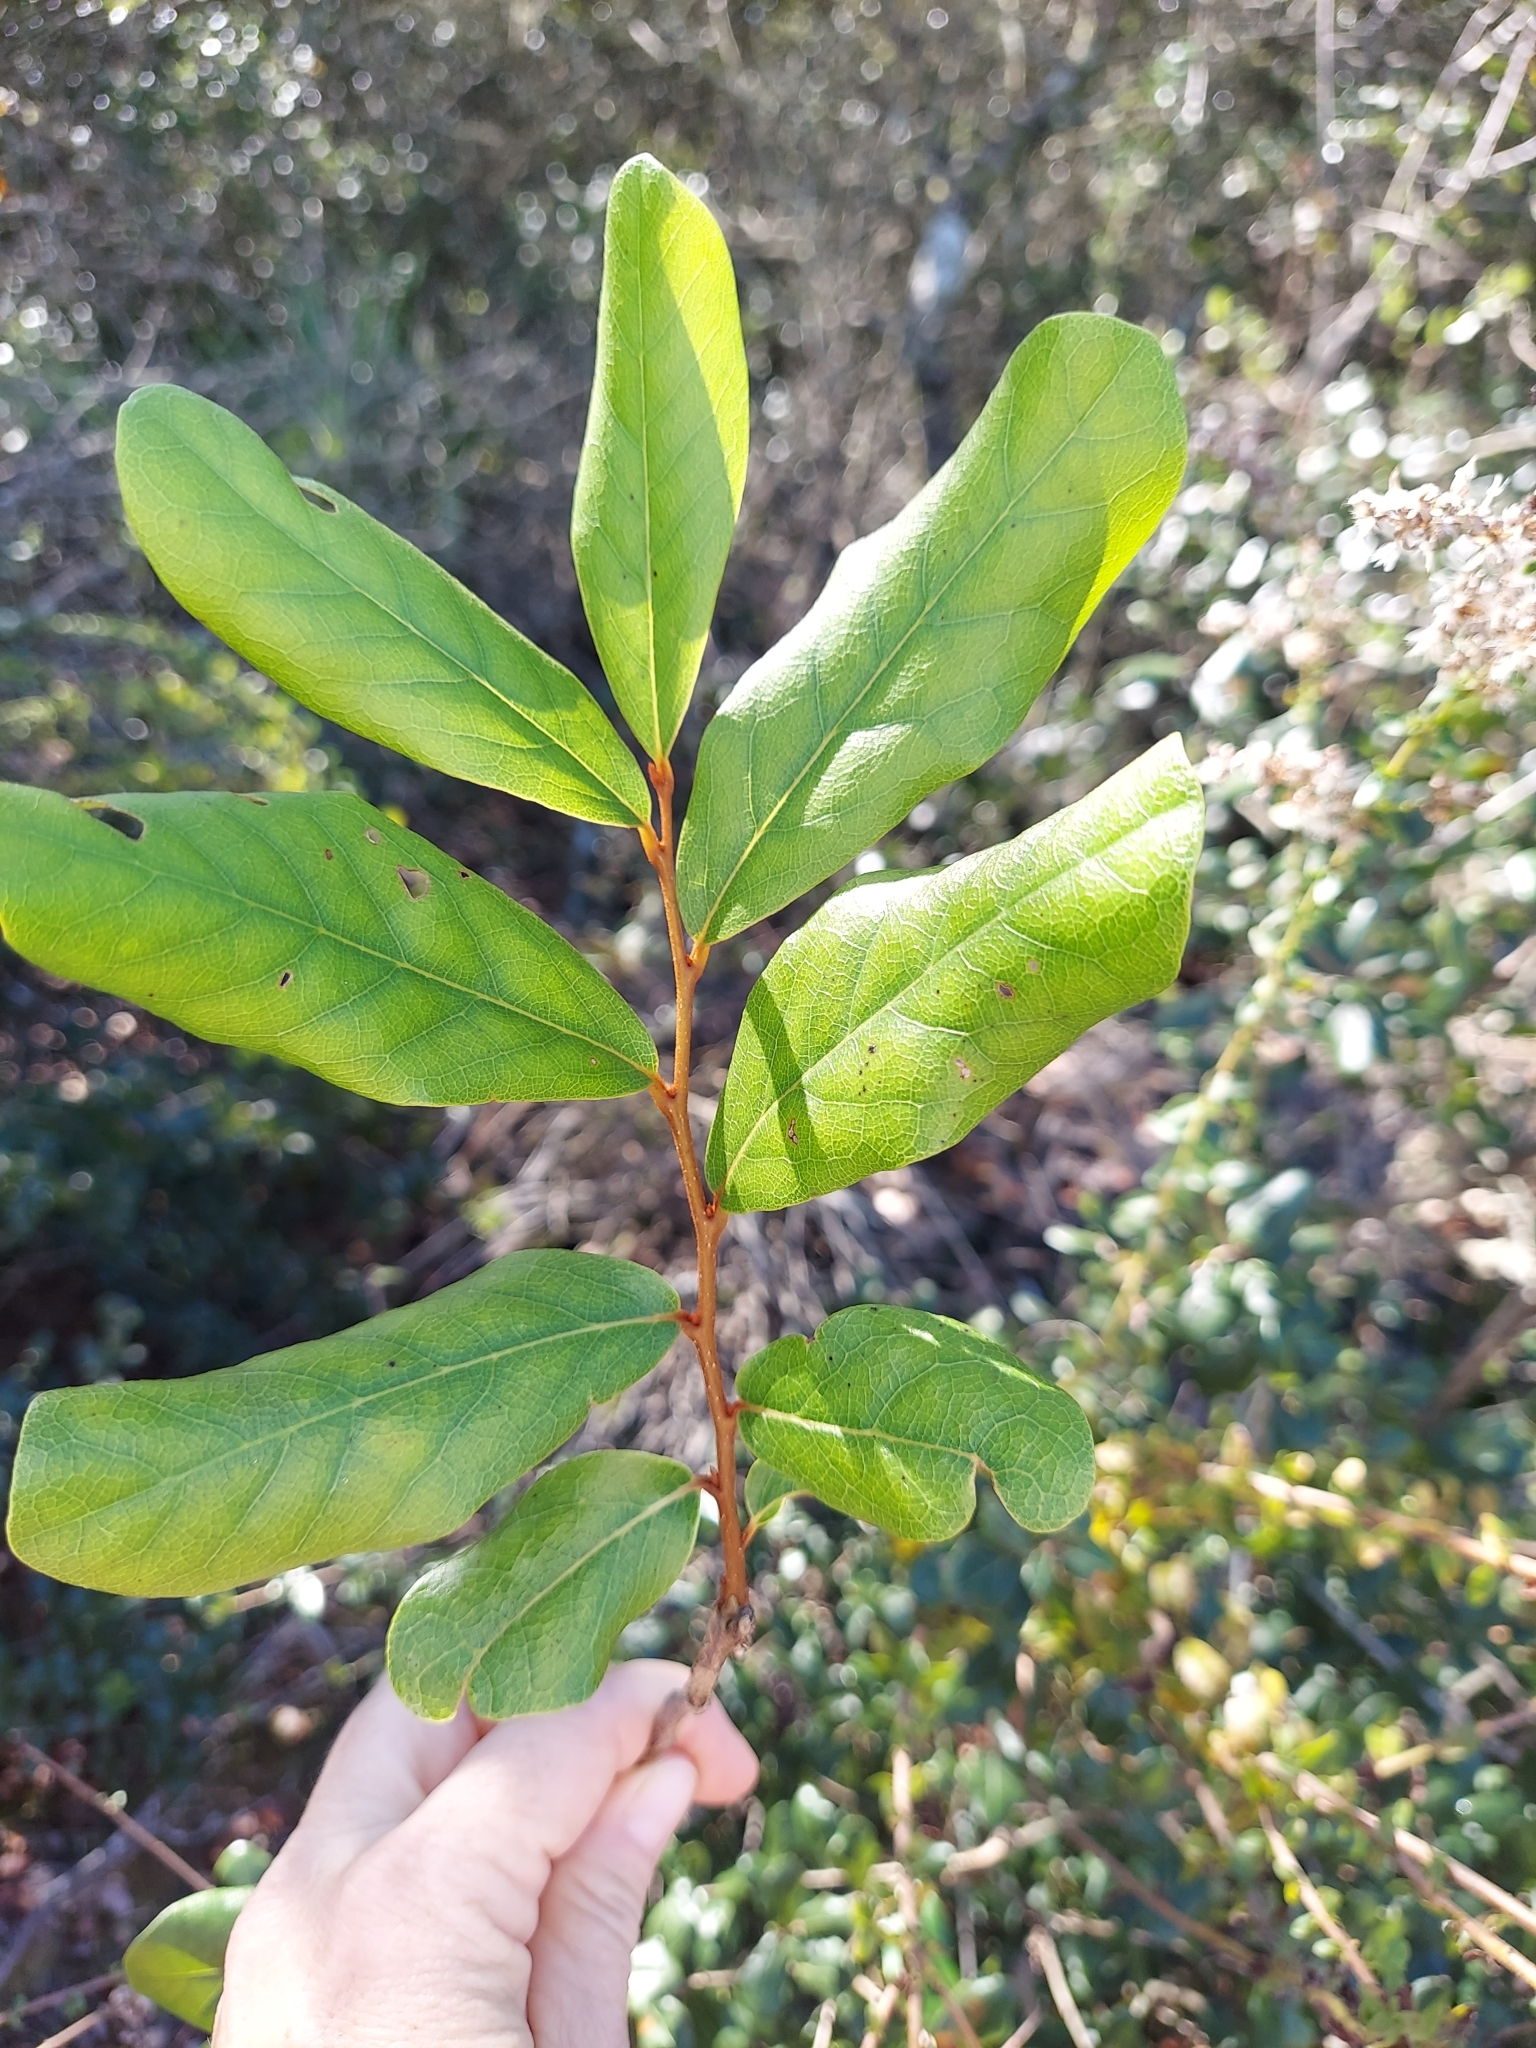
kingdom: Plantae
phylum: Tracheophyta
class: Magnoliopsida
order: Magnoliales
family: Annonaceae
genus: Asimina
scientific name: Asimina obovata
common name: Flag pawpaw
